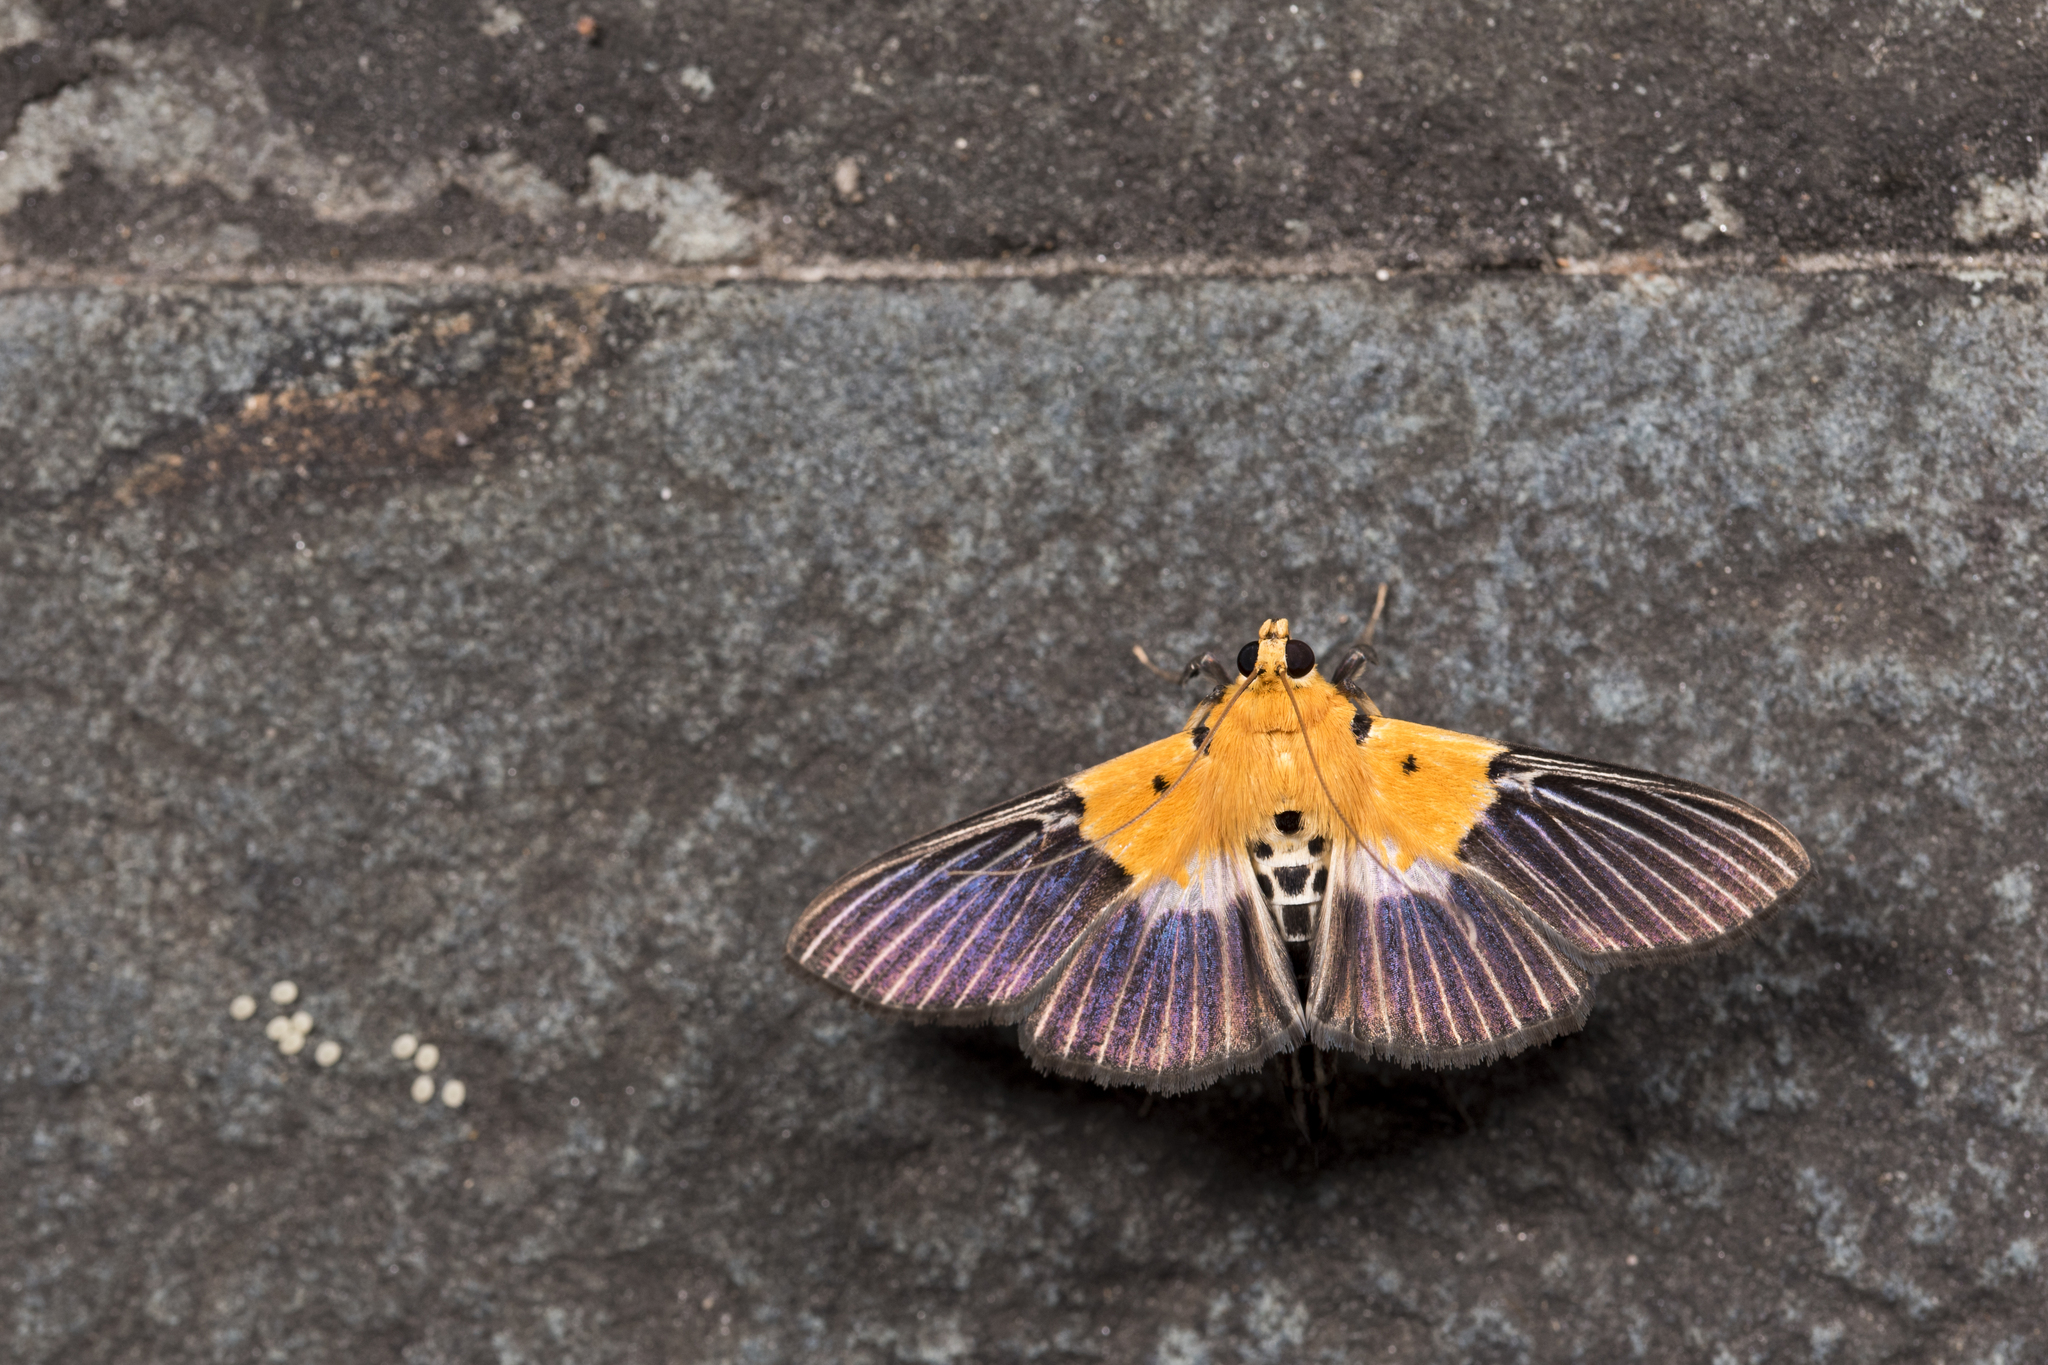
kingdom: Animalia
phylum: Arthropoda
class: Insecta
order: Lepidoptera
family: Crambidae
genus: Nevrina
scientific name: Nevrina procopia
